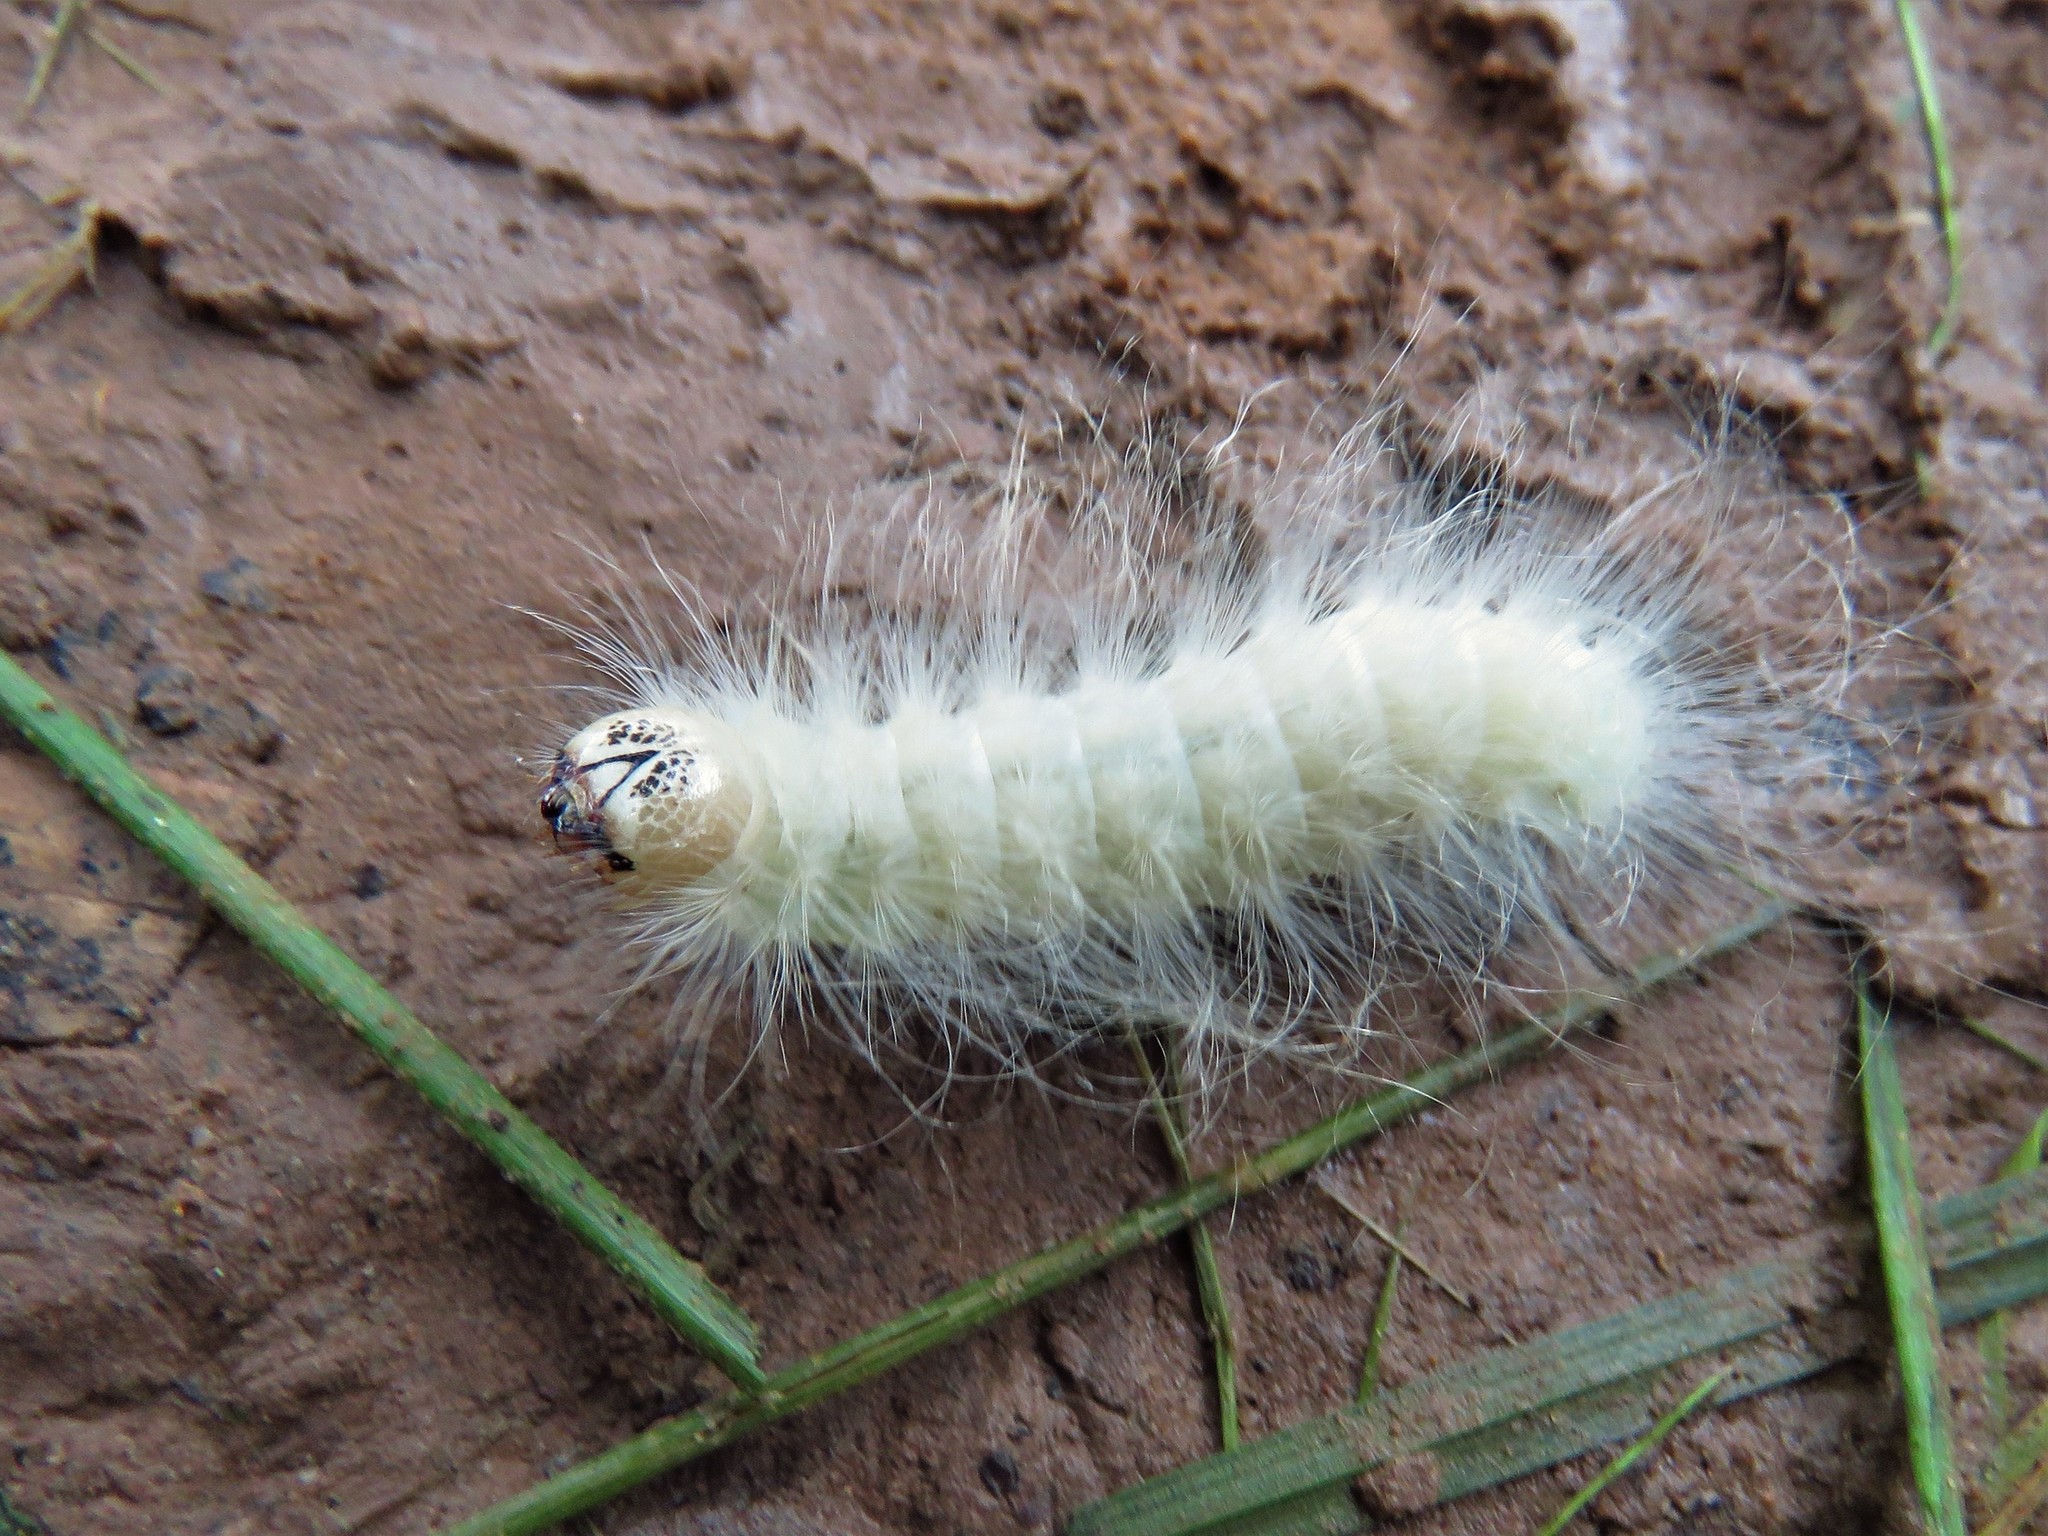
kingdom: Animalia
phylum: Arthropoda
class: Insecta
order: Lepidoptera
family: Noctuidae
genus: Charadra
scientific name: Charadra dispulsa
